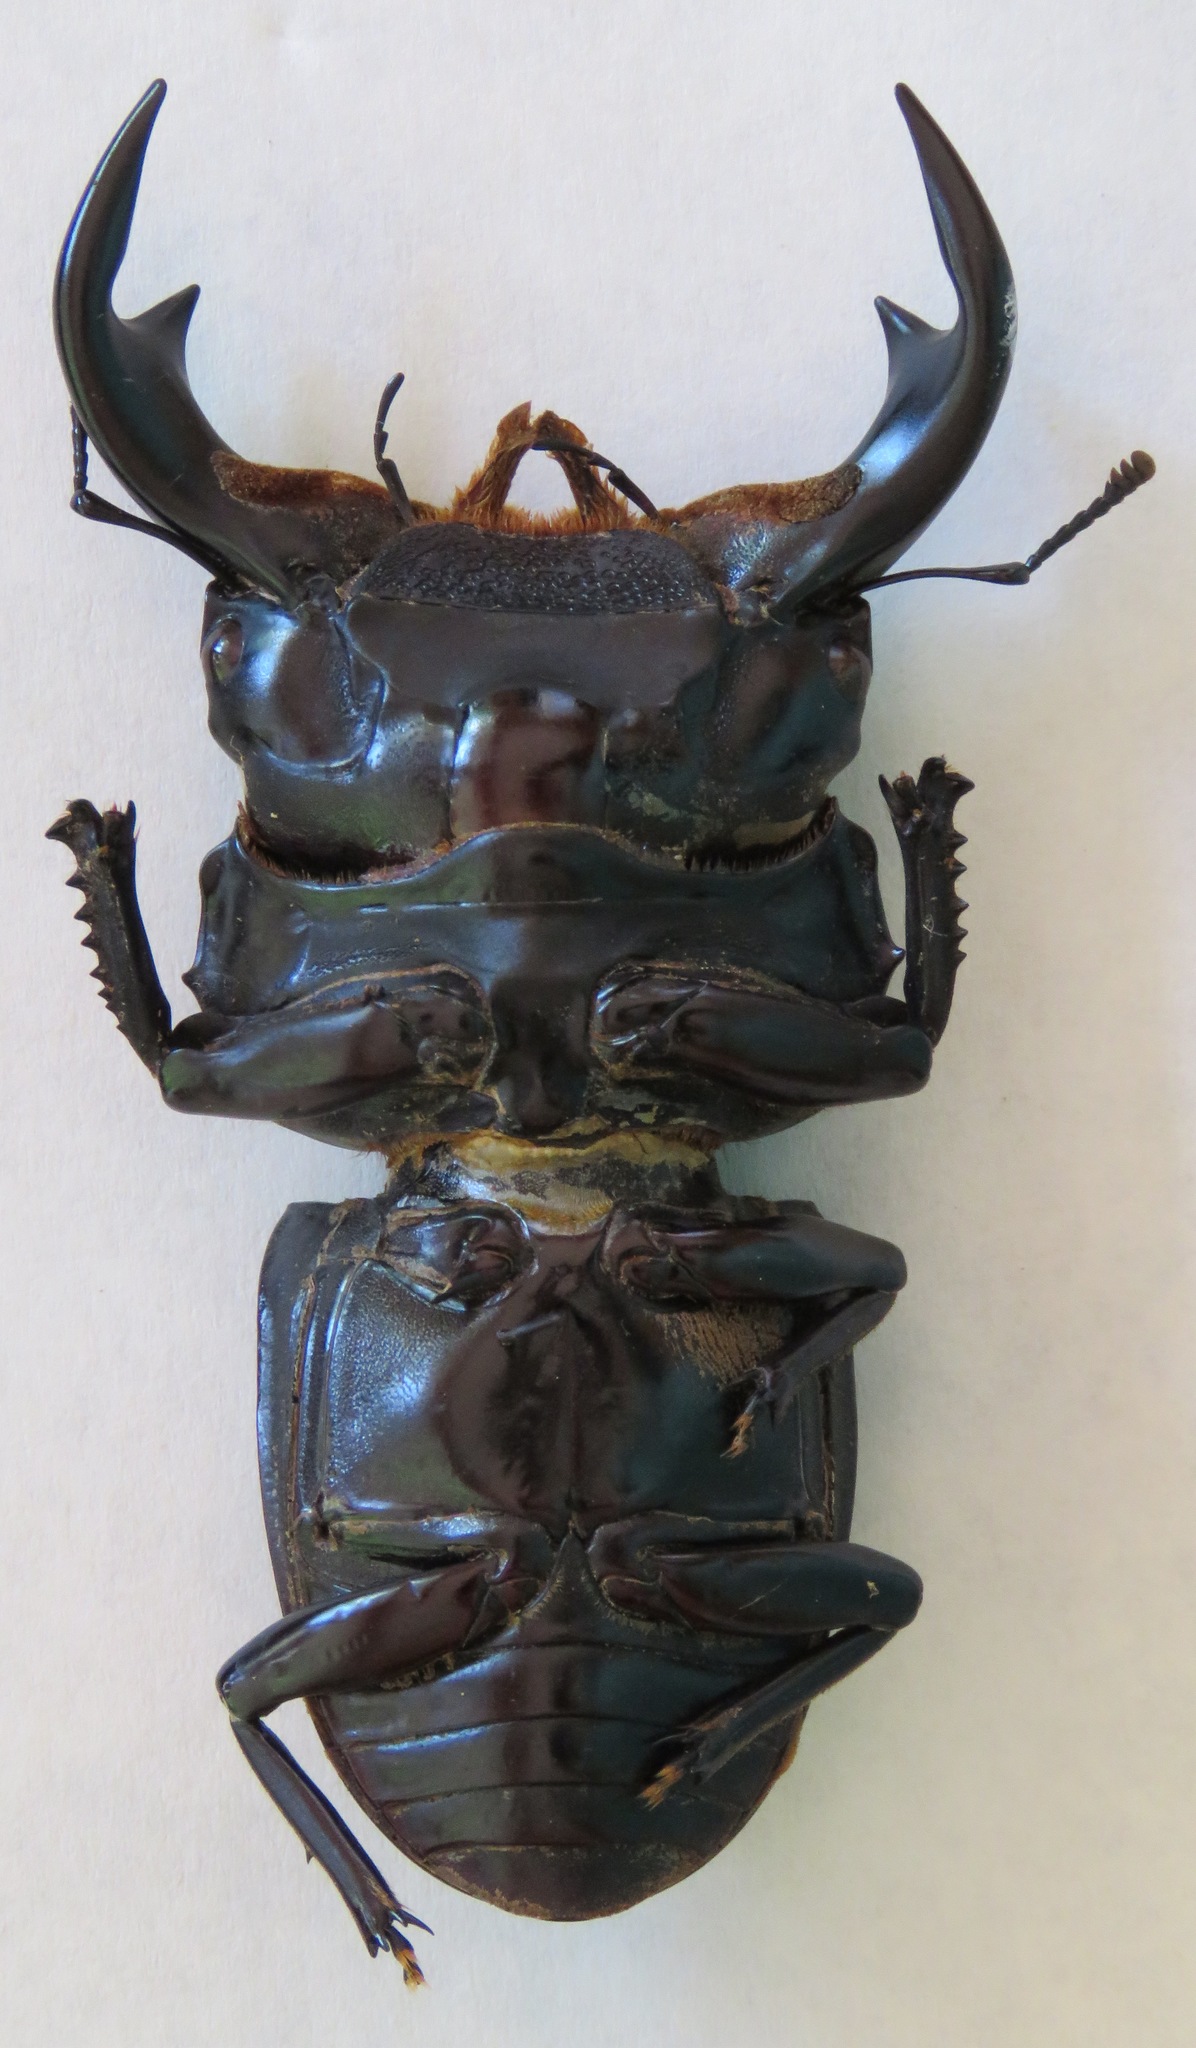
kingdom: Animalia
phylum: Arthropoda
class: Insecta
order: Coleoptera
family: Lucanidae
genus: Dorcus
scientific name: Dorcus antaeus
